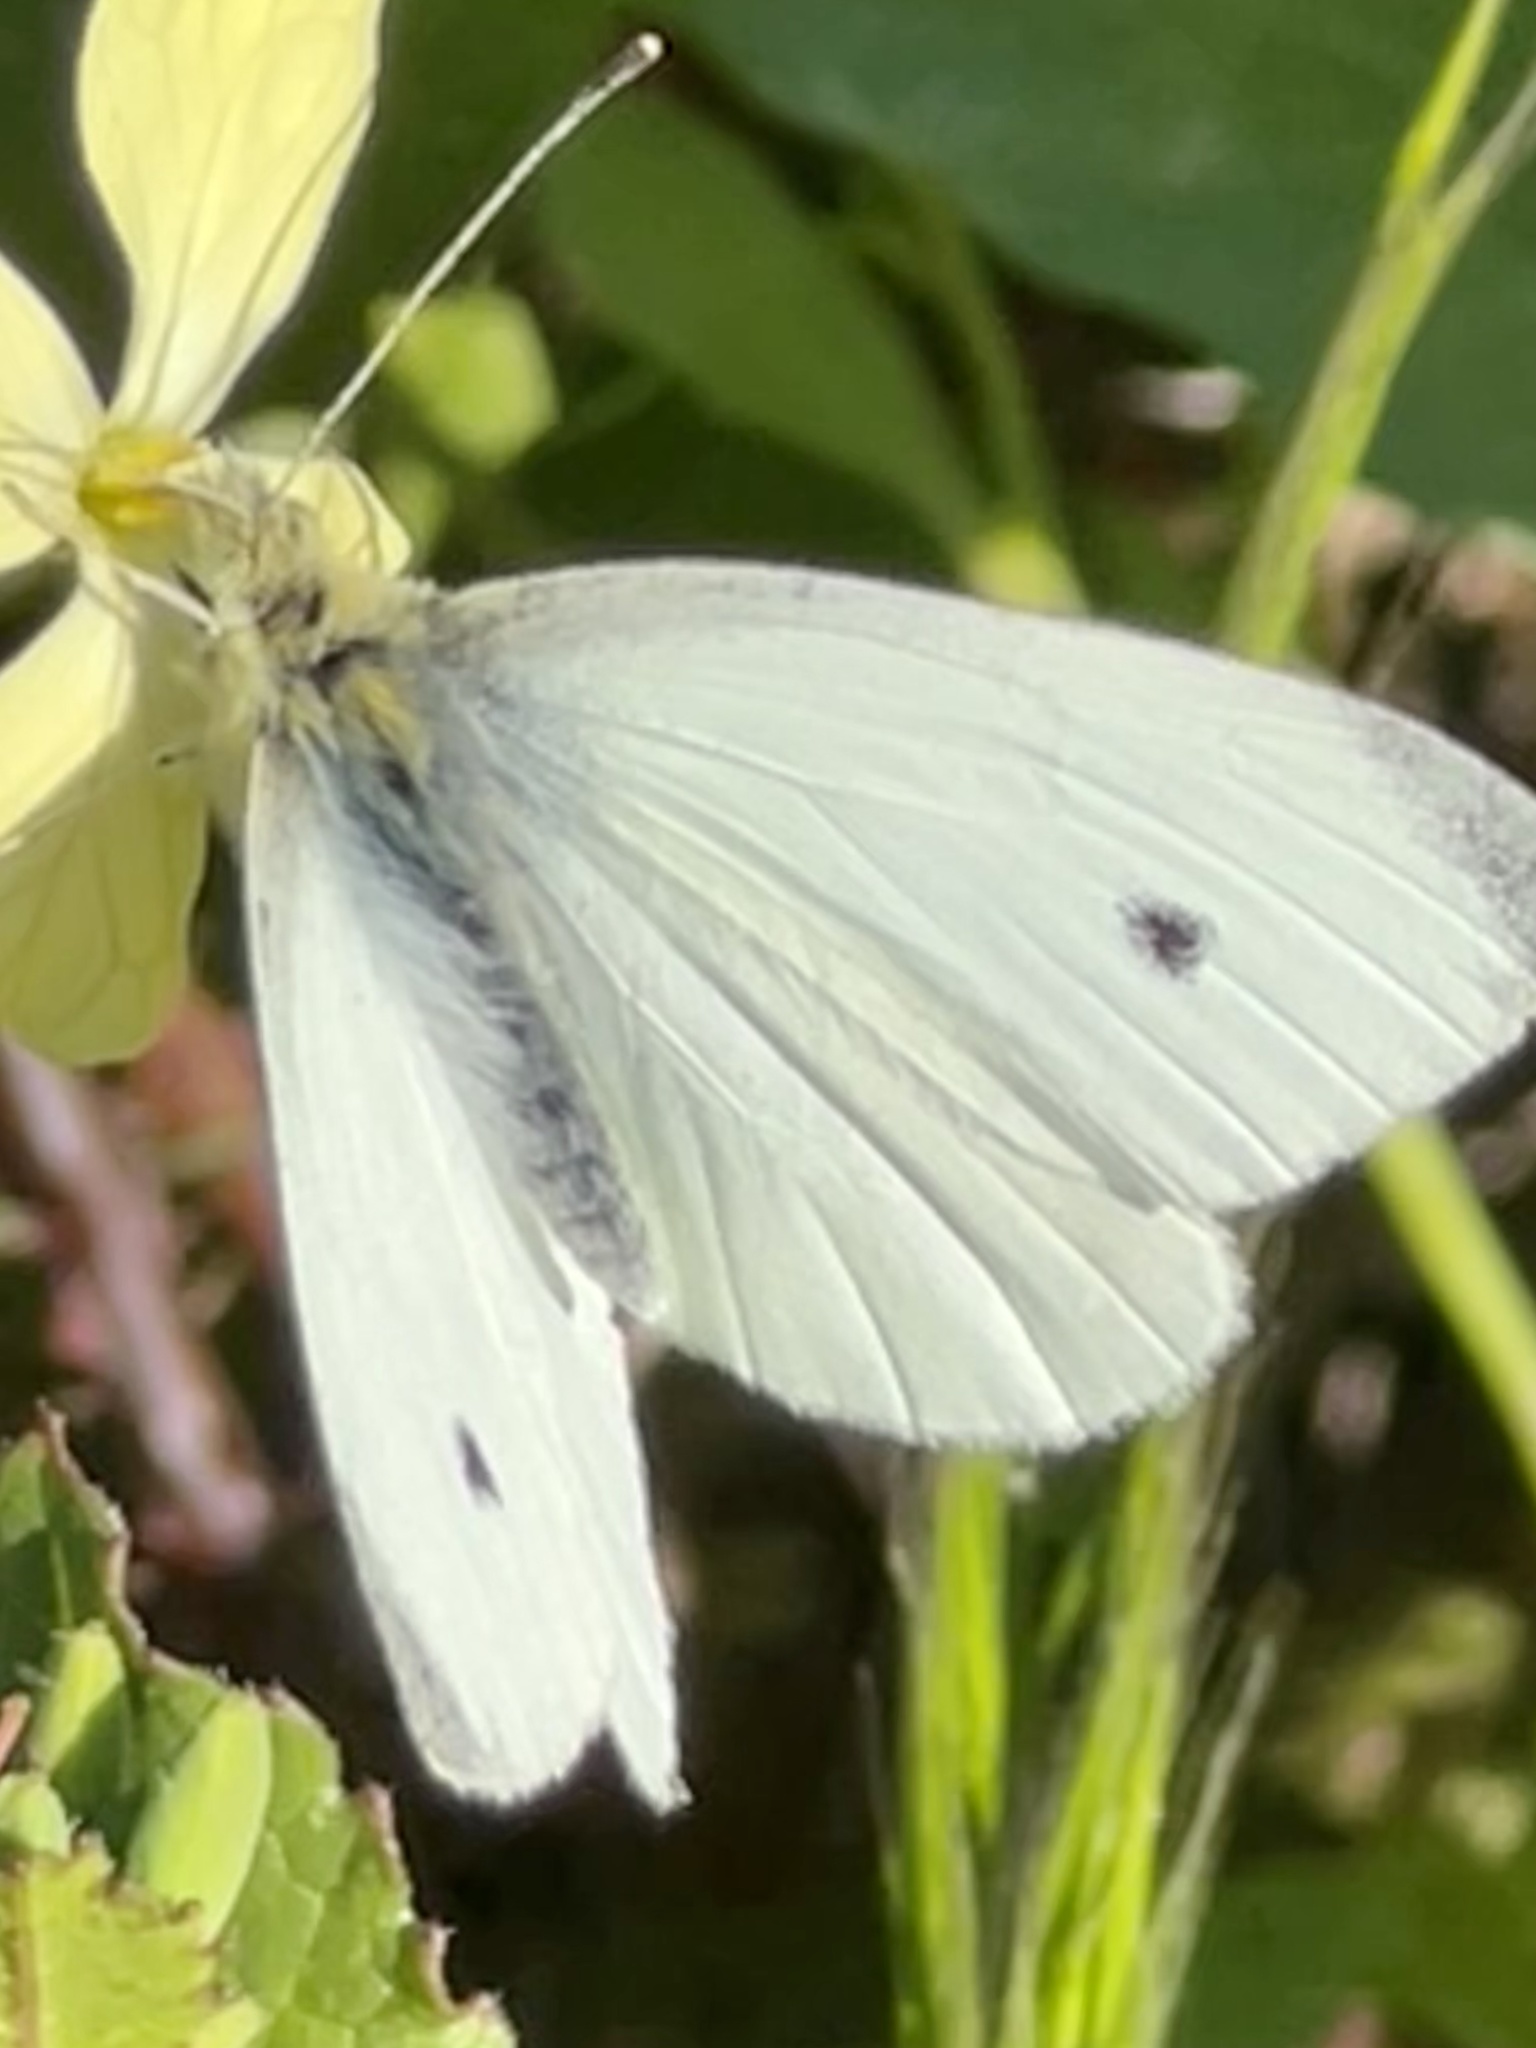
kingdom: Animalia
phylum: Arthropoda
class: Insecta
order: Lepidoptera
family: Pieridae
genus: Pieris
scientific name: Pieris rapae
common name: Small white
